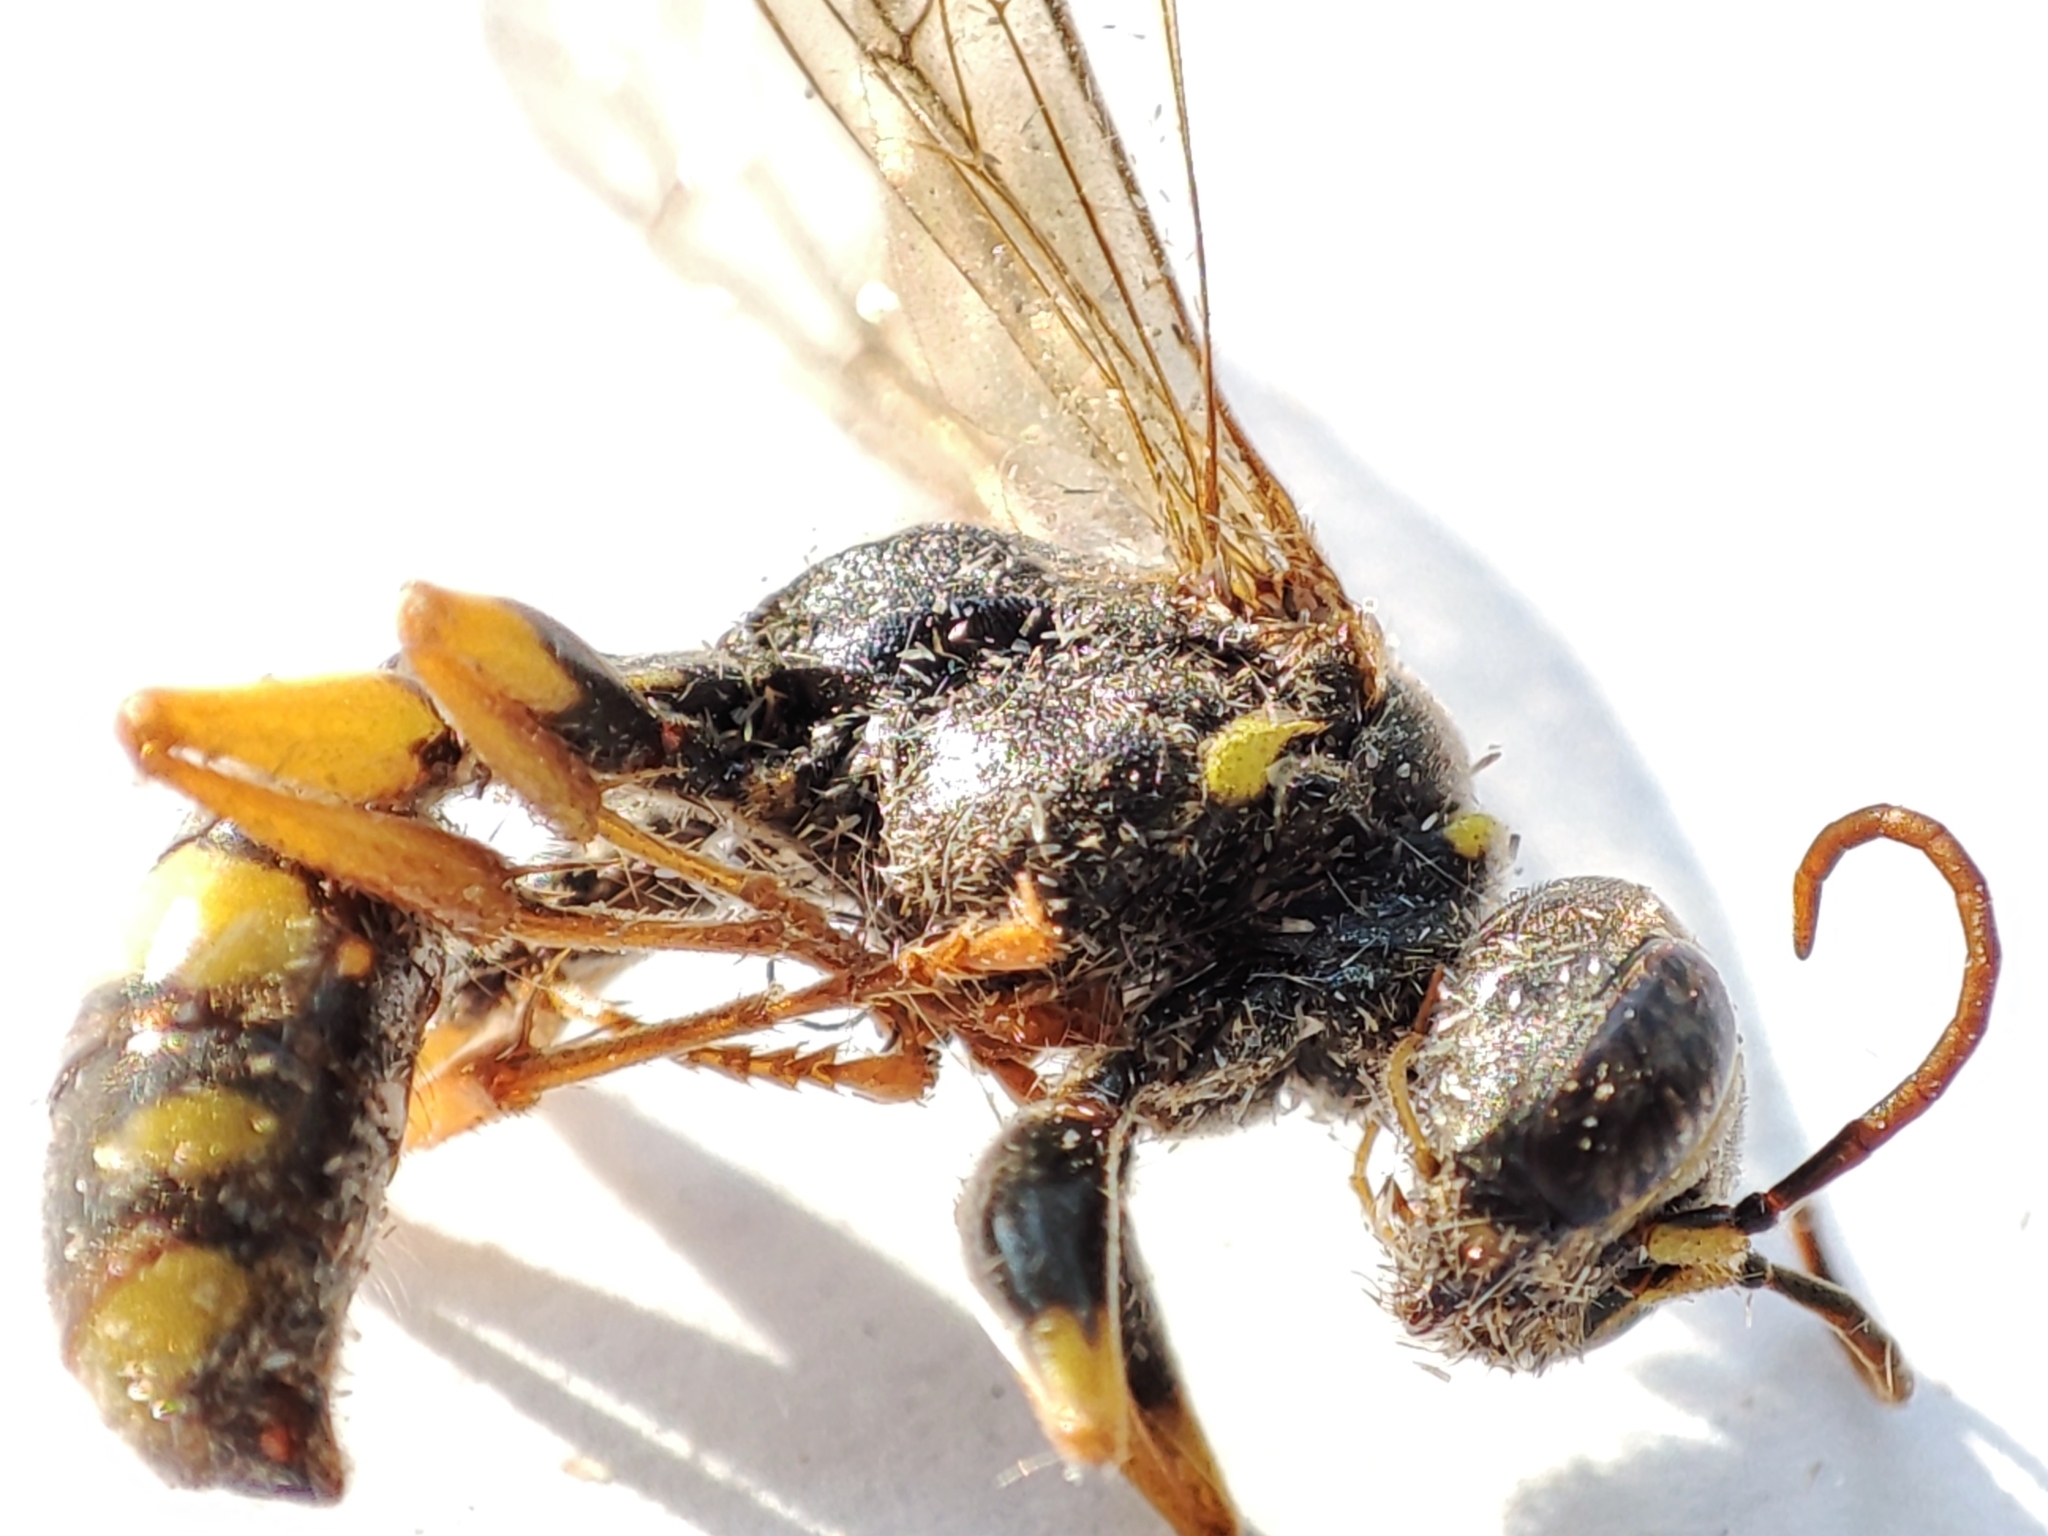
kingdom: Animalia
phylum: Arthropoda
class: Insecta
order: Hymenoptera
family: Crabronidae
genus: Mellinus
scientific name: Mellinus arvensis
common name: Field digger wasp
